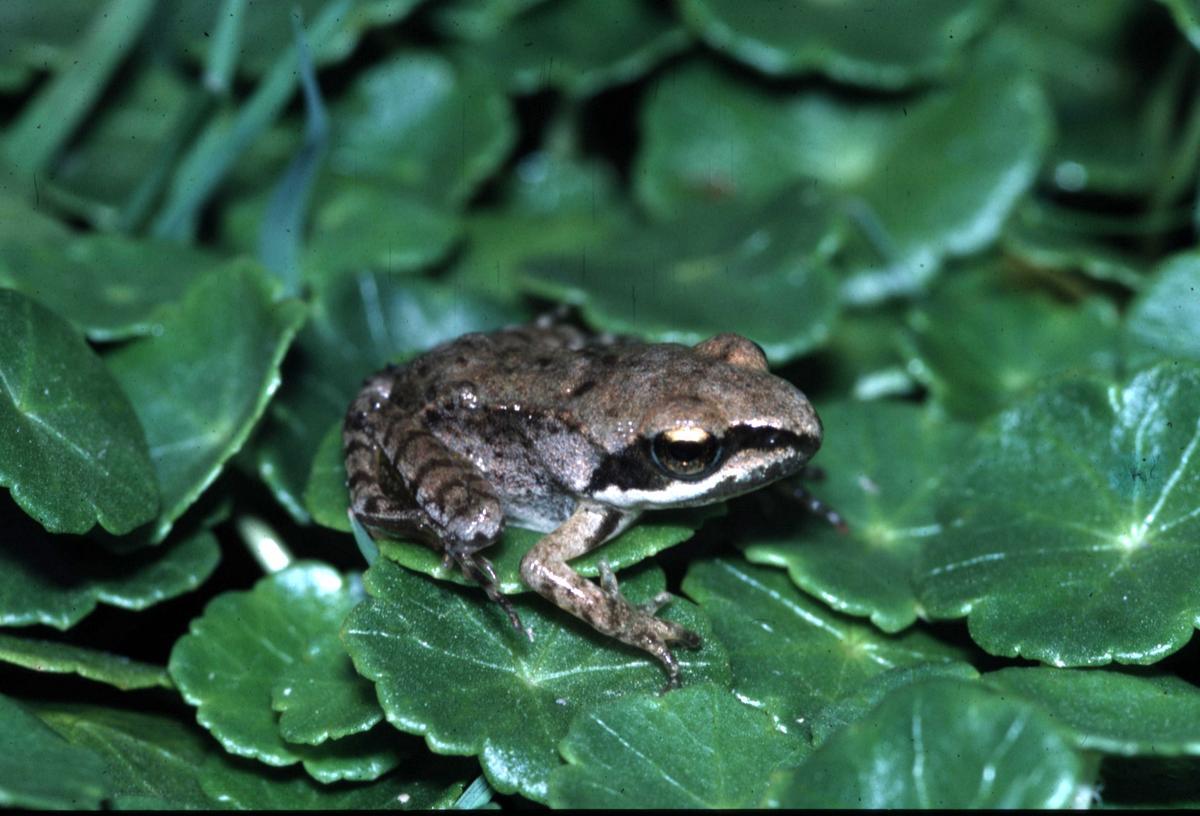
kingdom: Animalia
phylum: Chordata
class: Amphibia
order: Anura
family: Ranidae
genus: Rana
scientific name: Rana dalmatina
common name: Agile frog
